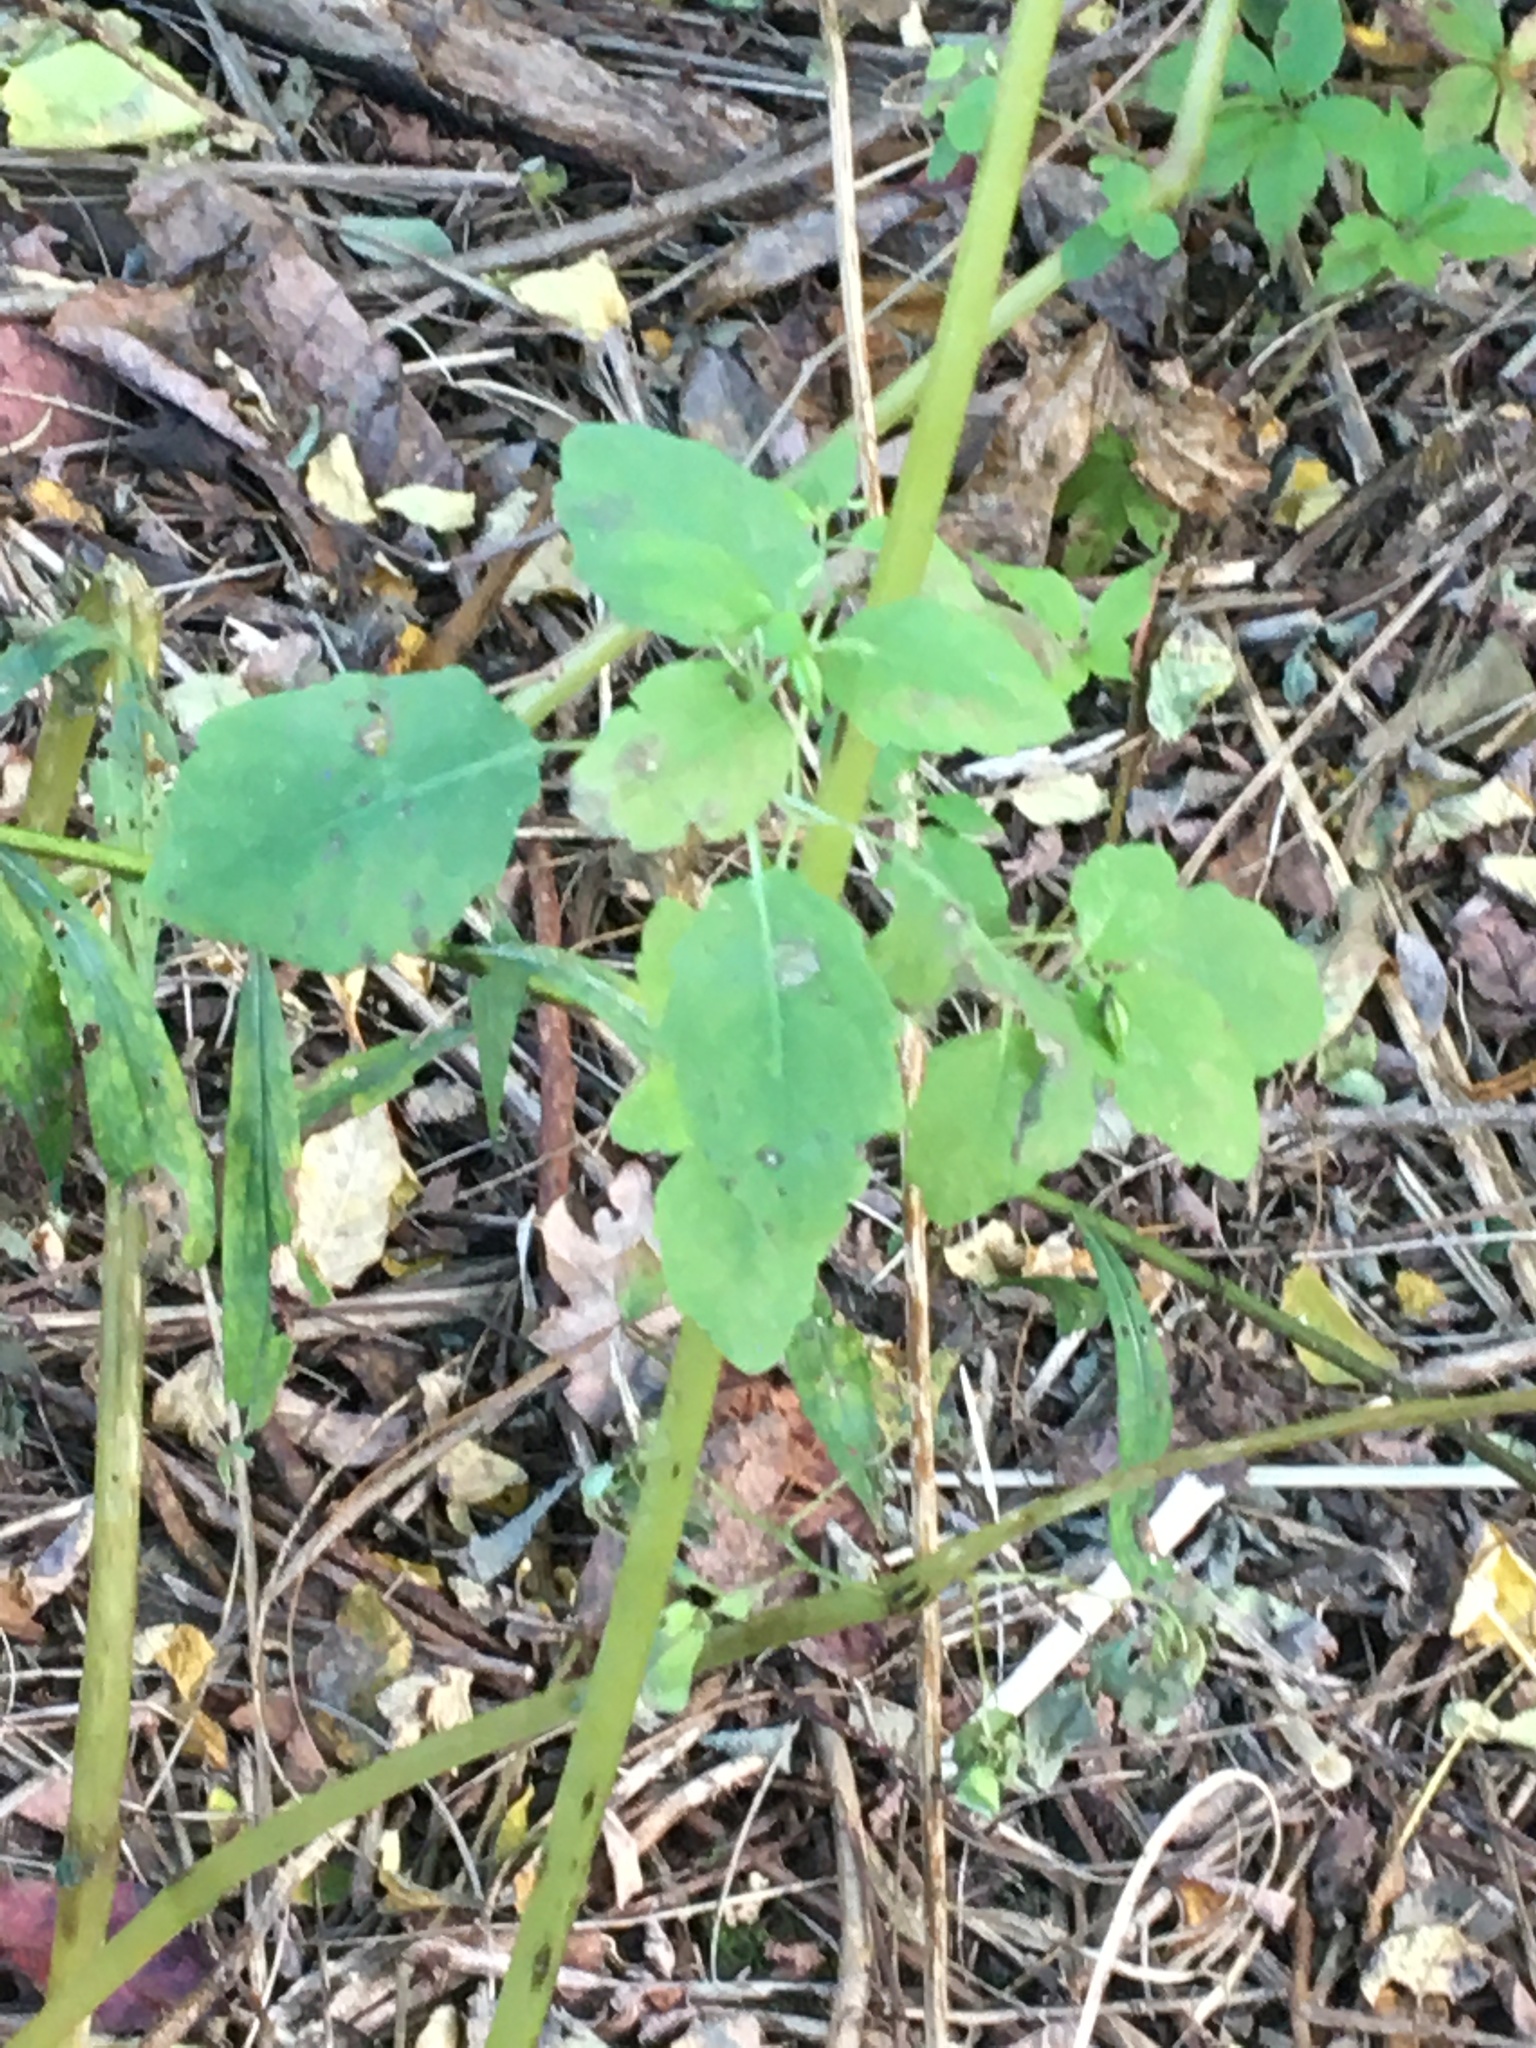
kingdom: Plantae
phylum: Tracheophyta
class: Magnoliopsida
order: Ericales
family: Balsaminaceae
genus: Impatiens
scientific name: Impatiens
